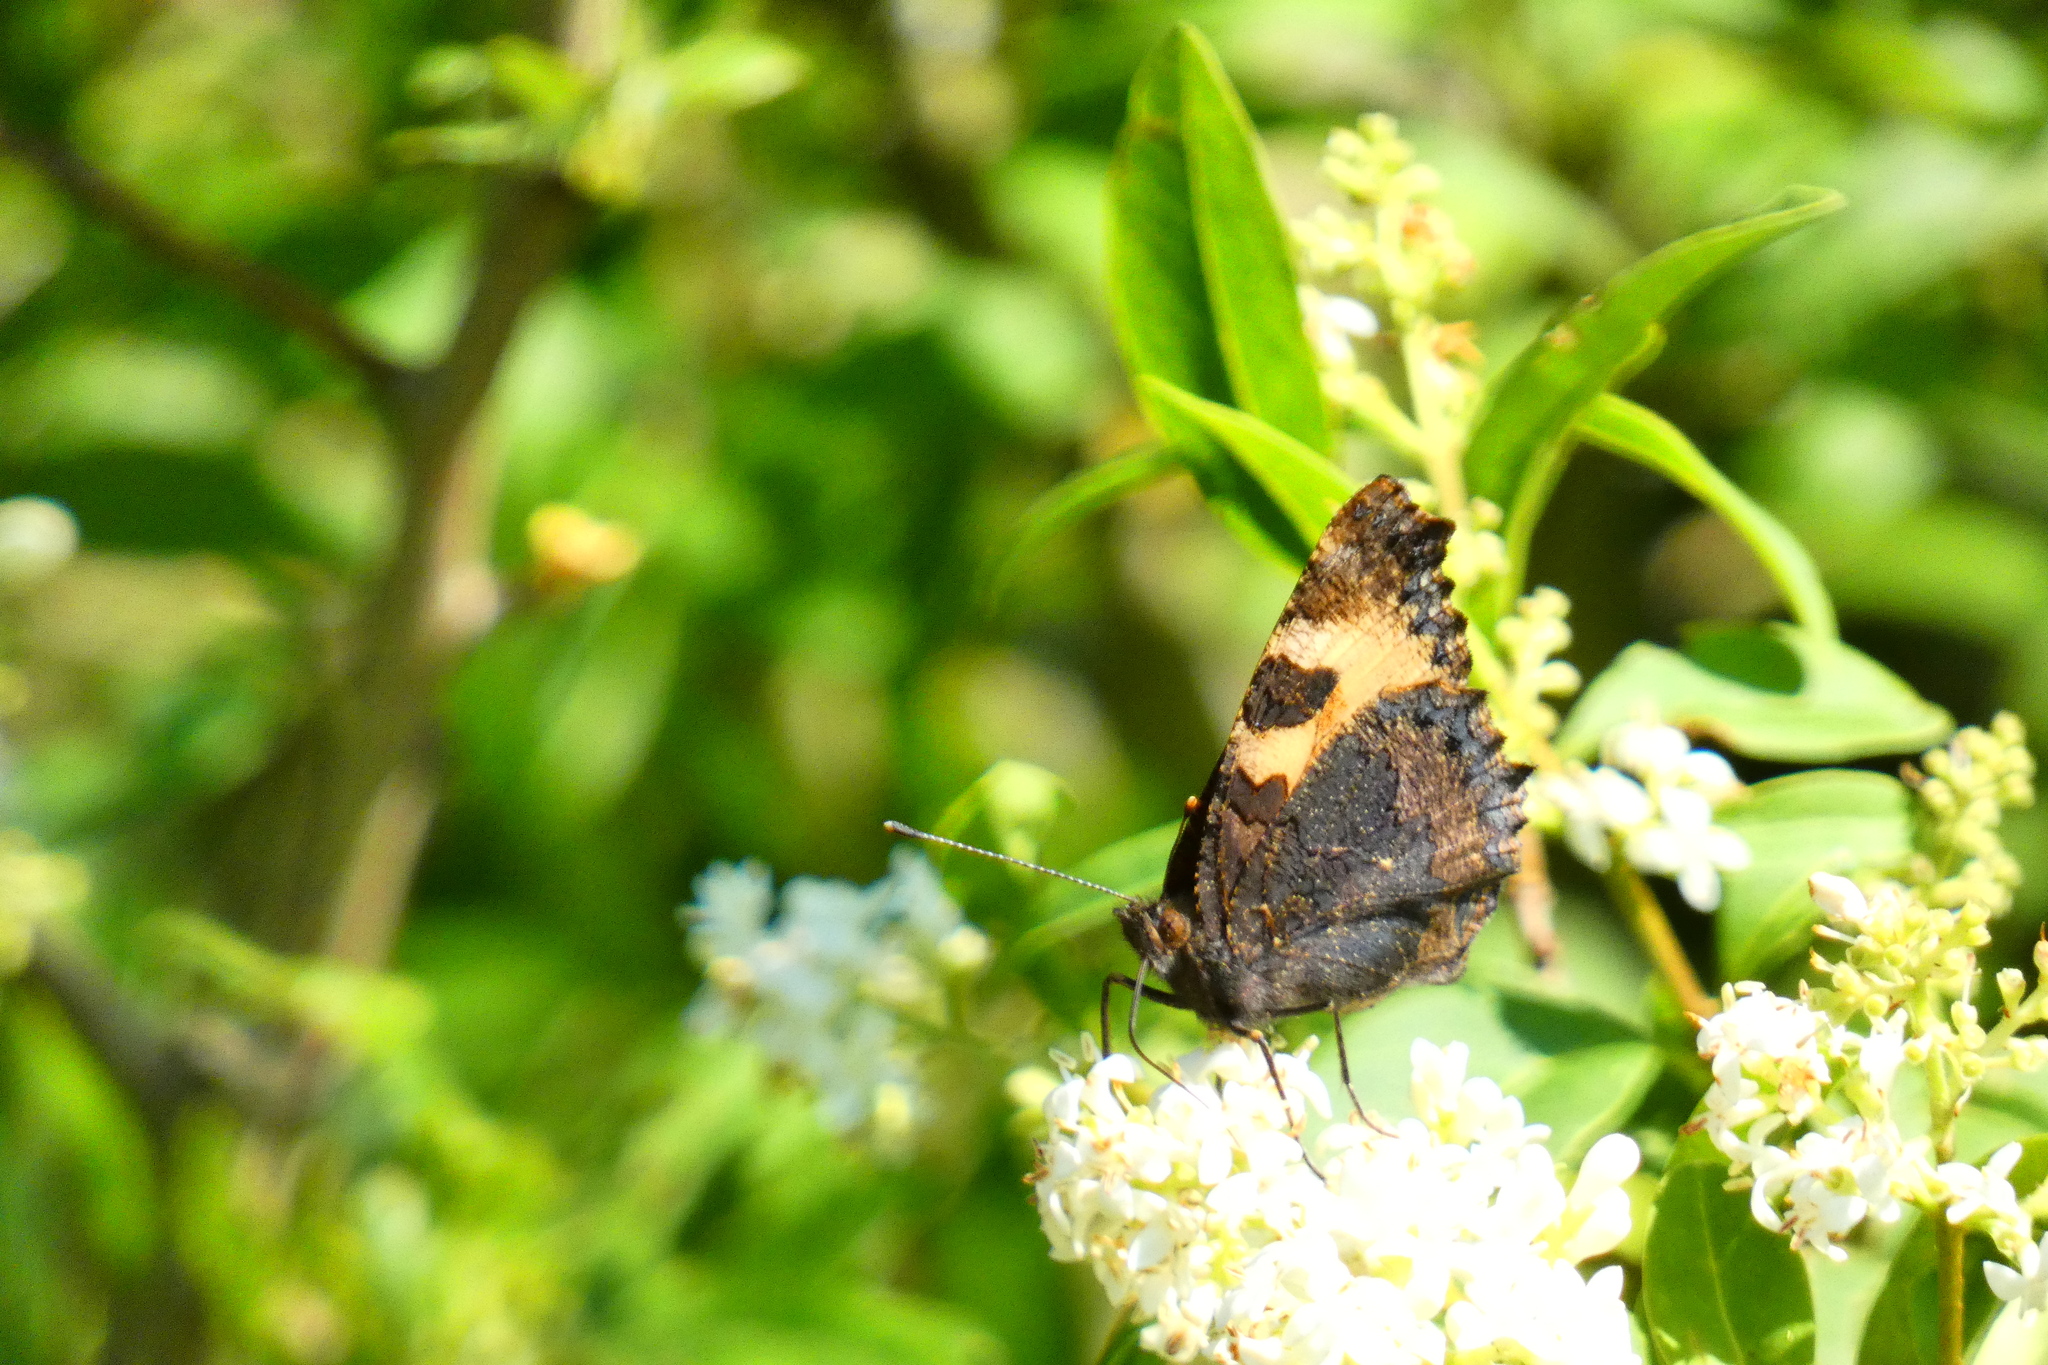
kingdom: Animalia
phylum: Arthropoda
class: Insecta
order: Lepidoptera
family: Nymphalidae
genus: Aglais
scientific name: Aglais urticae
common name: Small tortoiseshell
